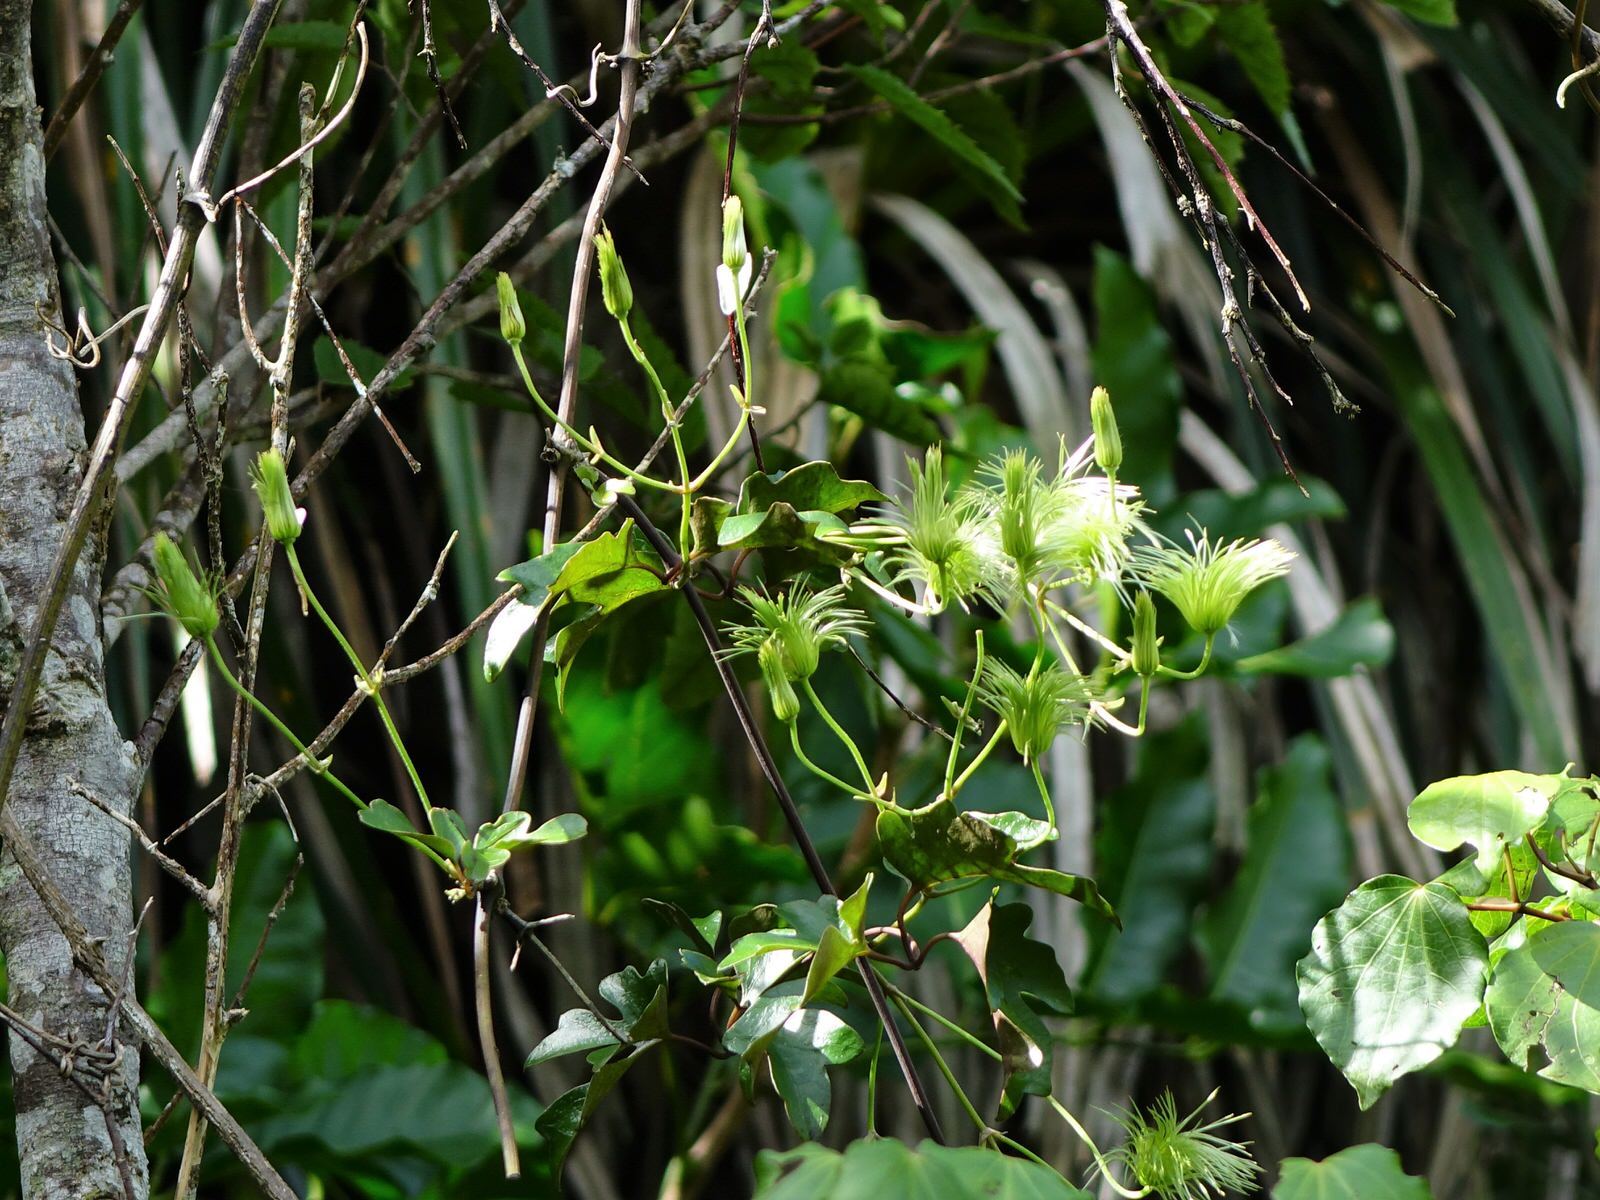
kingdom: Plantae
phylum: Tracheophyta
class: Magnoliopsida
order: Ranunculales
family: Ranunculaceae
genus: Clematis
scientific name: Clematis paniculata
